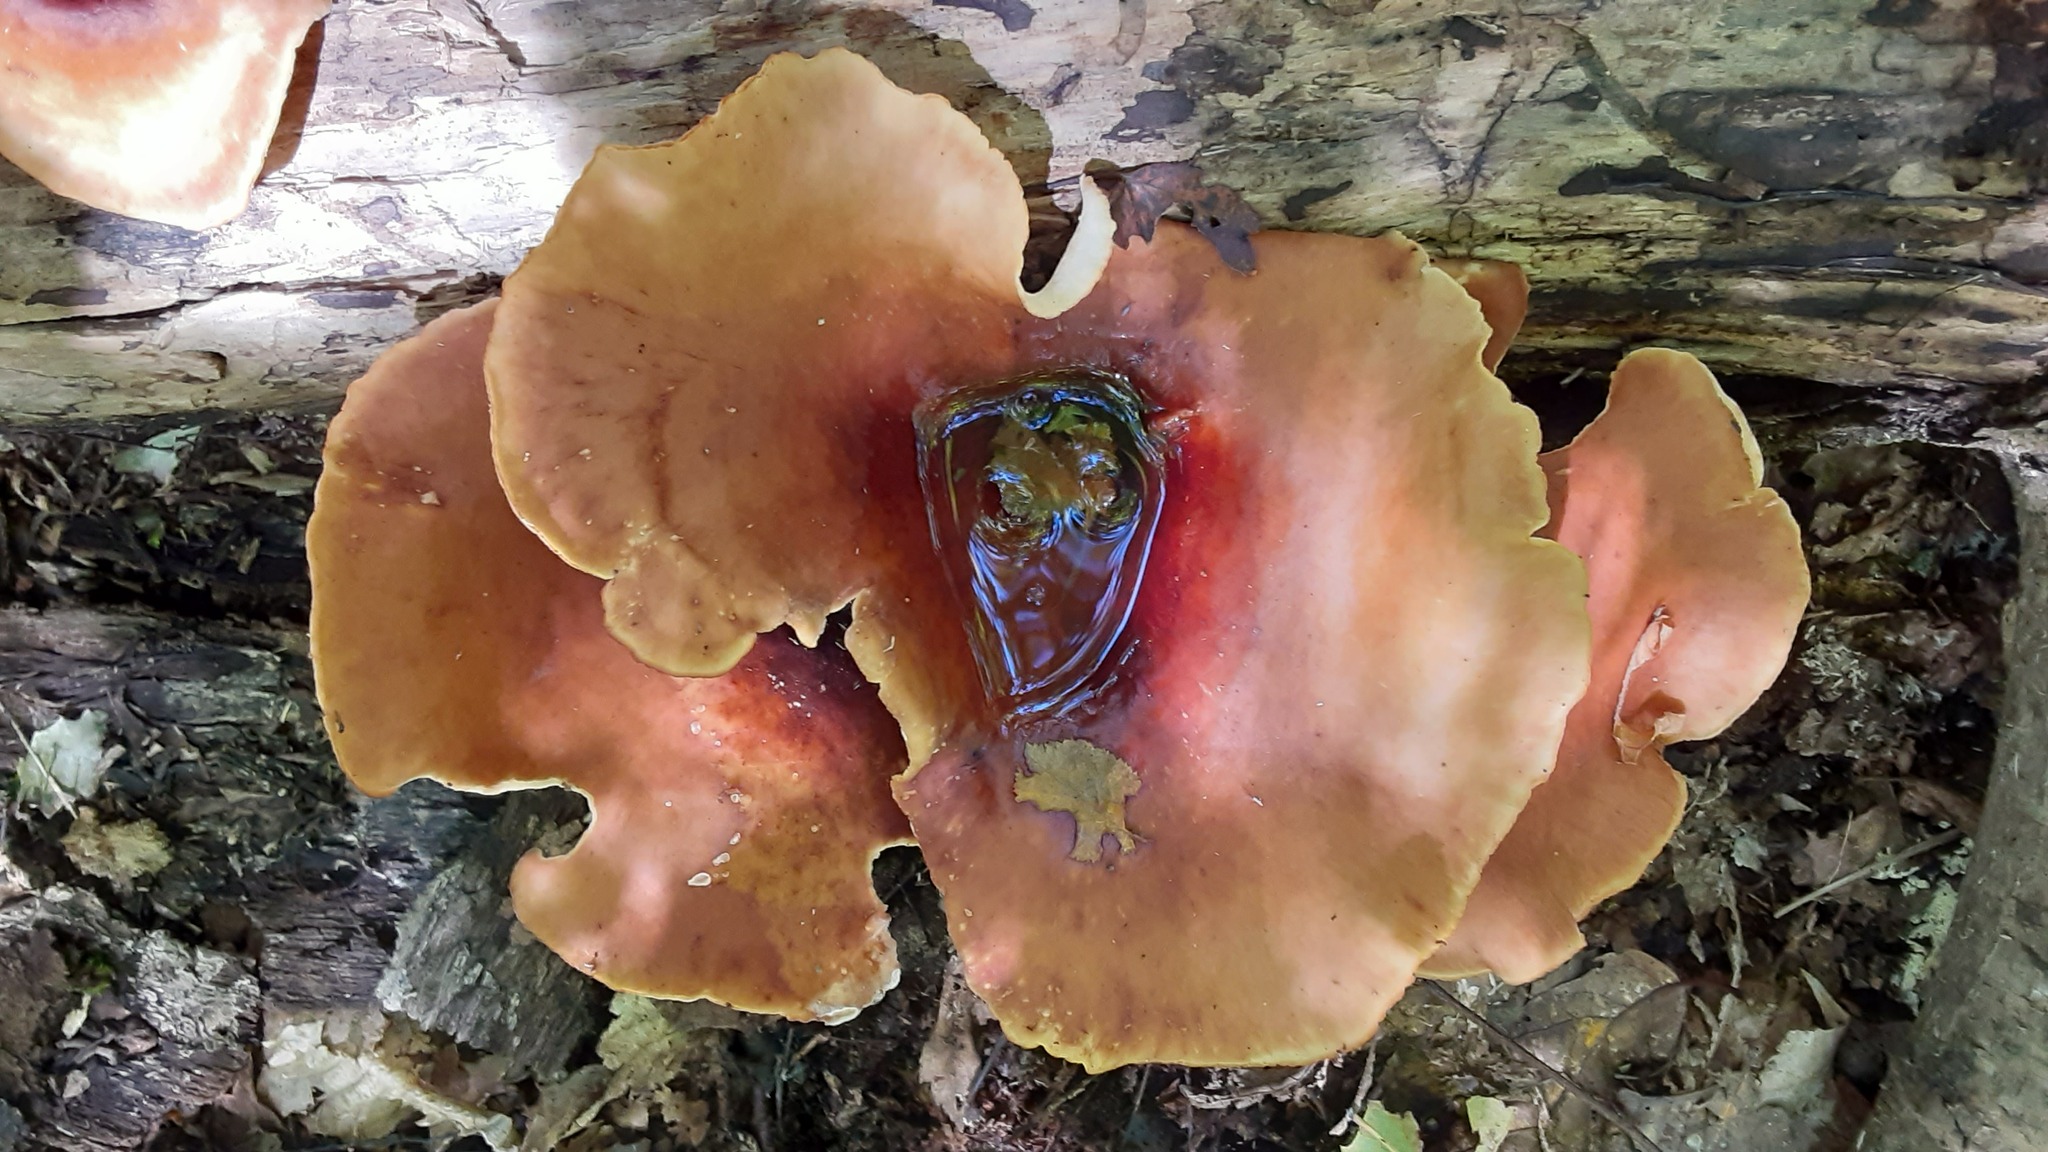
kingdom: Fungi
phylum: Basidiomycota
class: Agaricomycetes
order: Polyporales
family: Polyporaceae
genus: Picipes
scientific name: Picipes badius
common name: Bay polypore
